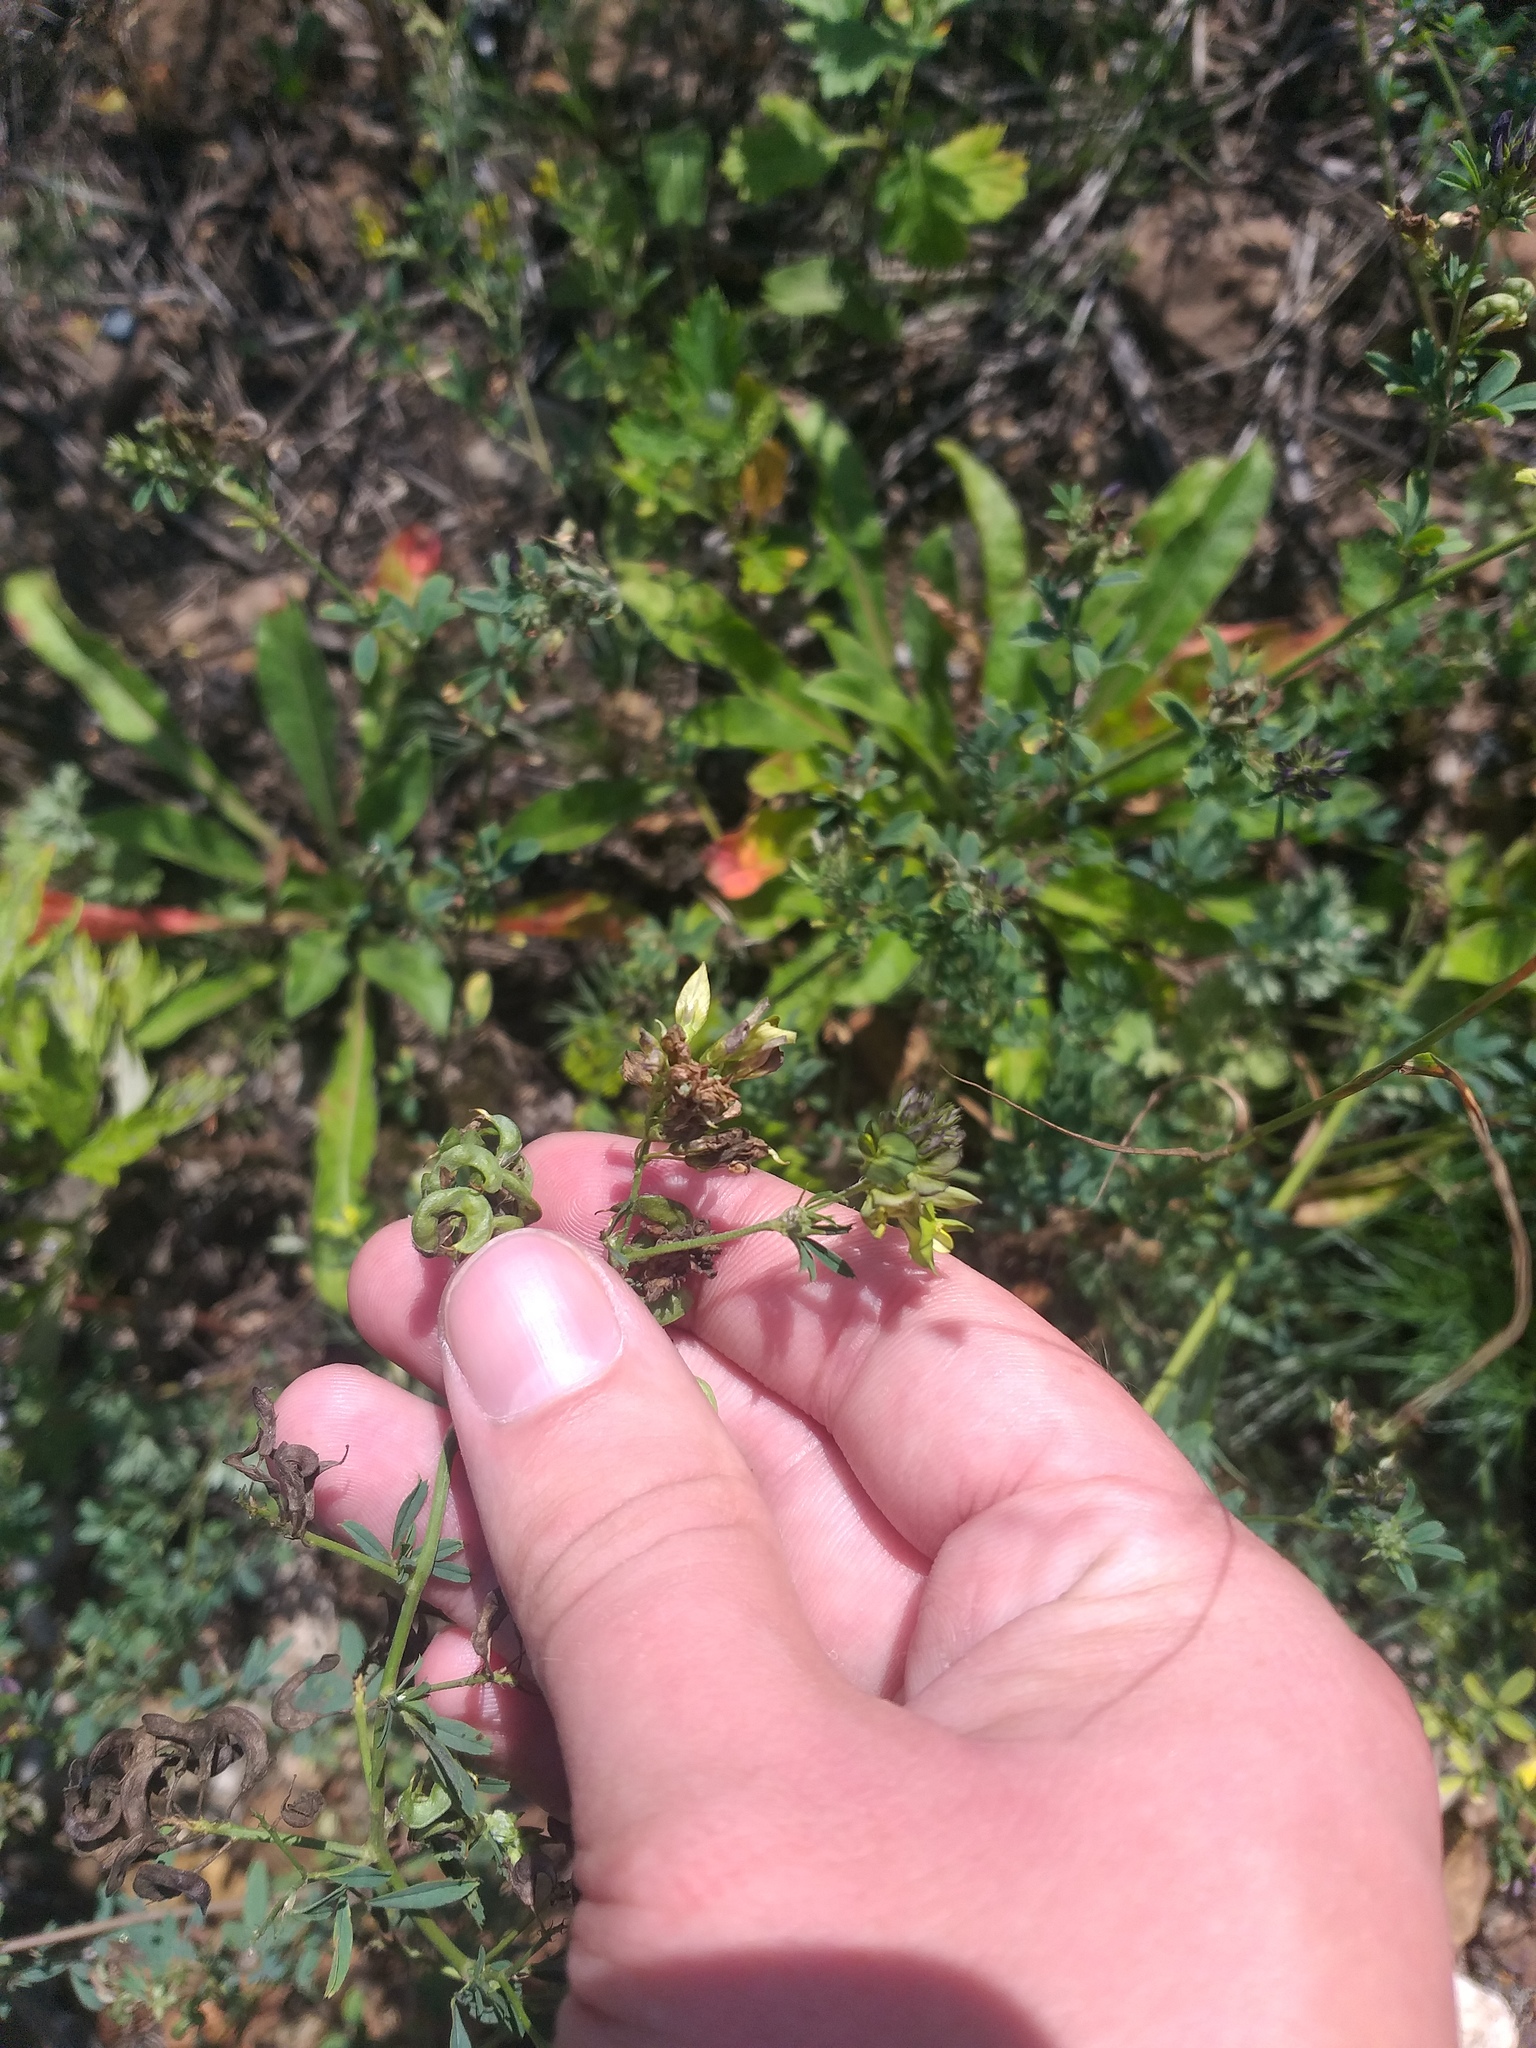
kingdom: Plantae
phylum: Tracheophyta
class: Magnoliopsida
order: Fabales
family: Fabaceae
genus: Medicago
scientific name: Medicago varia
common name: Sand lucerne
